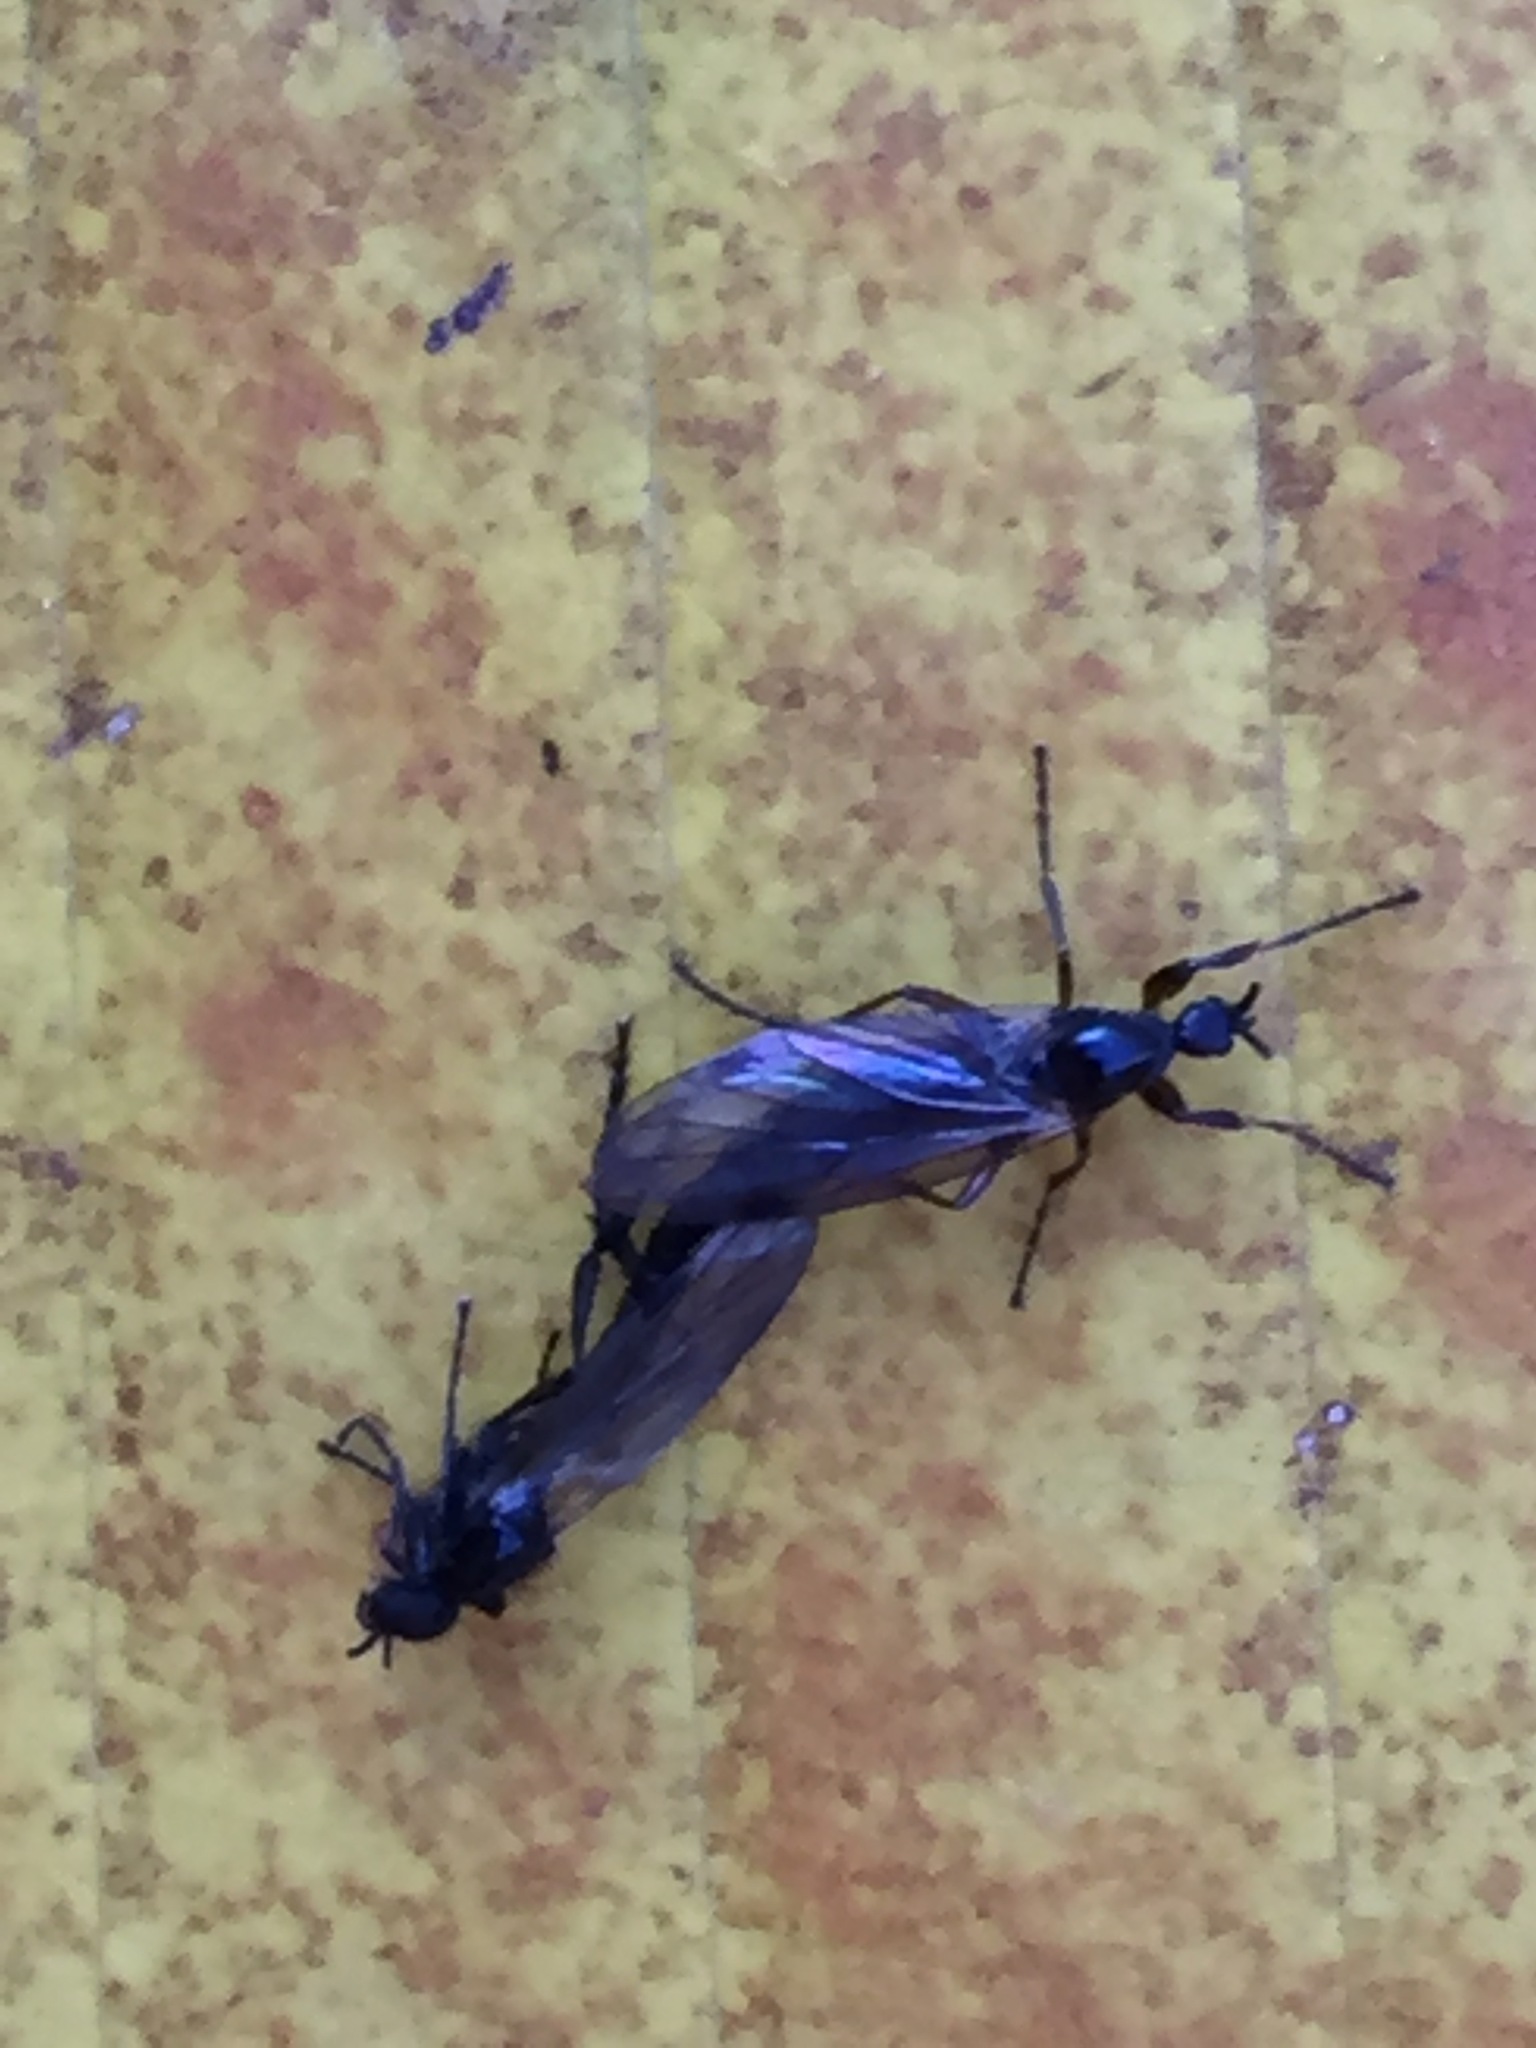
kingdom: Animalia
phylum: Arthropoda
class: Insecta
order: Diptera
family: Bibionidae
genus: Bibio
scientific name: Bibio slossonae
